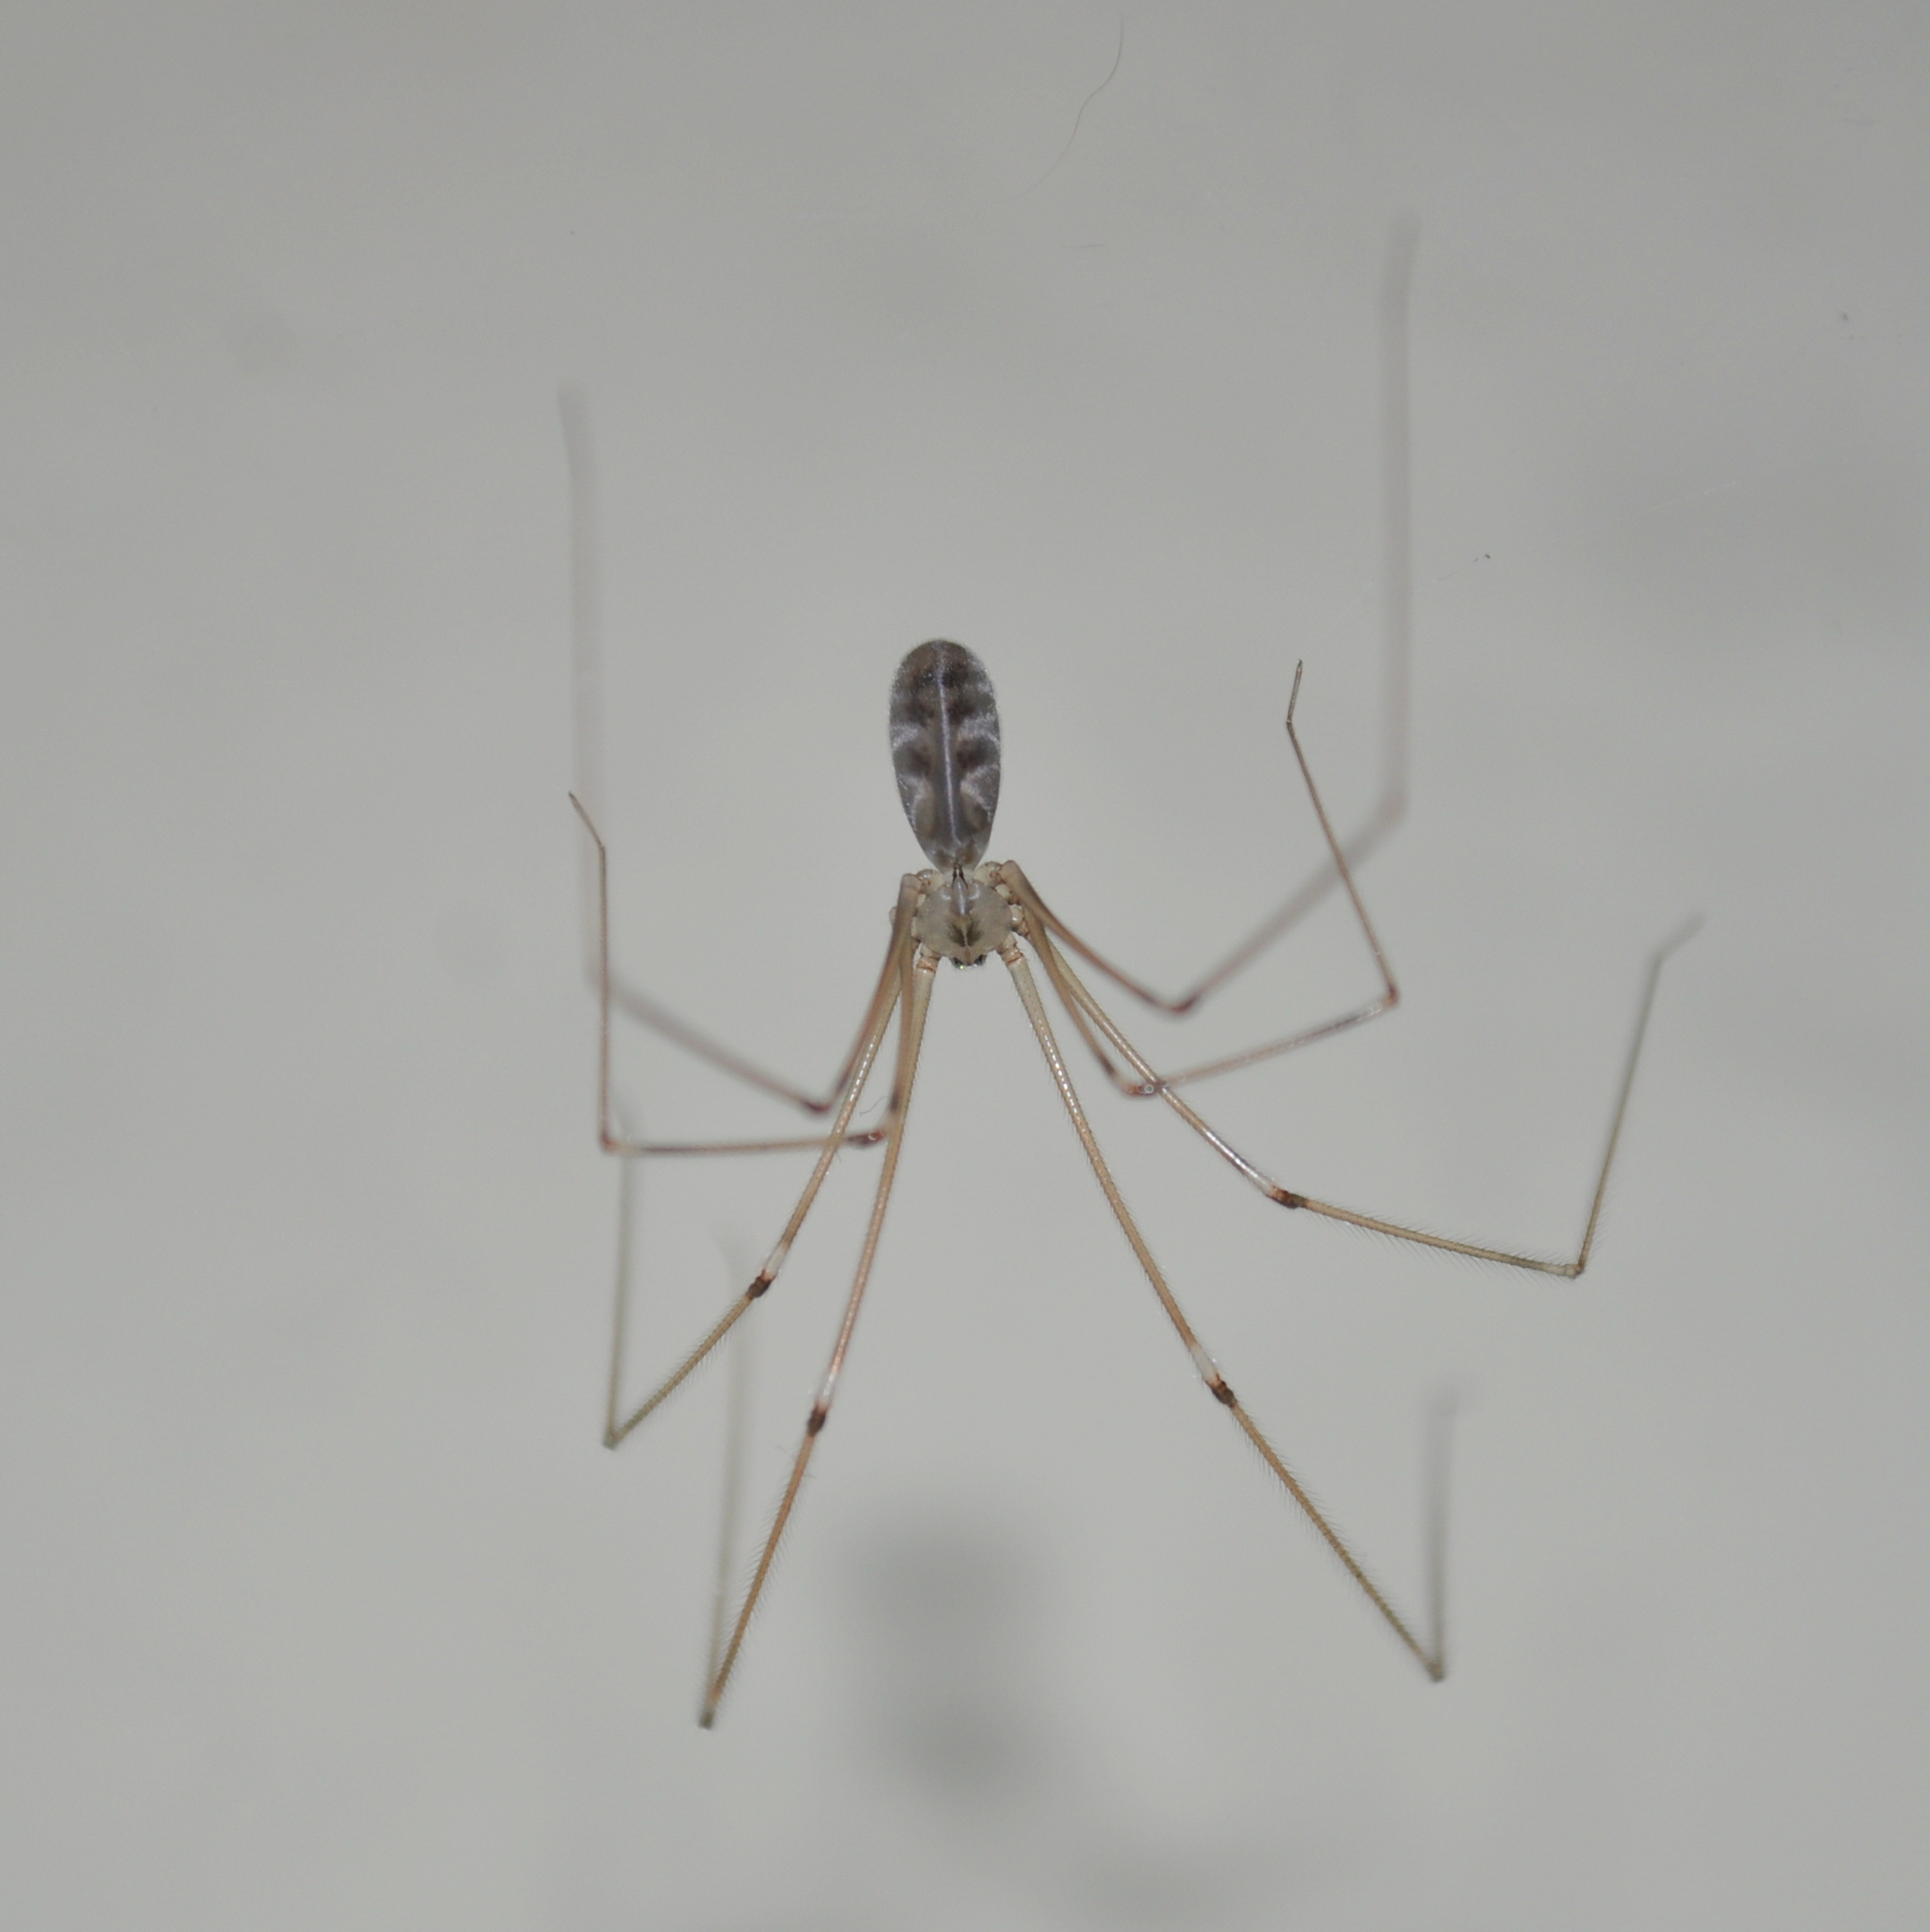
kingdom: Animalia
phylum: Arthropoda
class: Arachnida
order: Araneae
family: Pholcidae
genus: Pholcus
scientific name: Pholcus phalangioides
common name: Longbodied cellar spider
